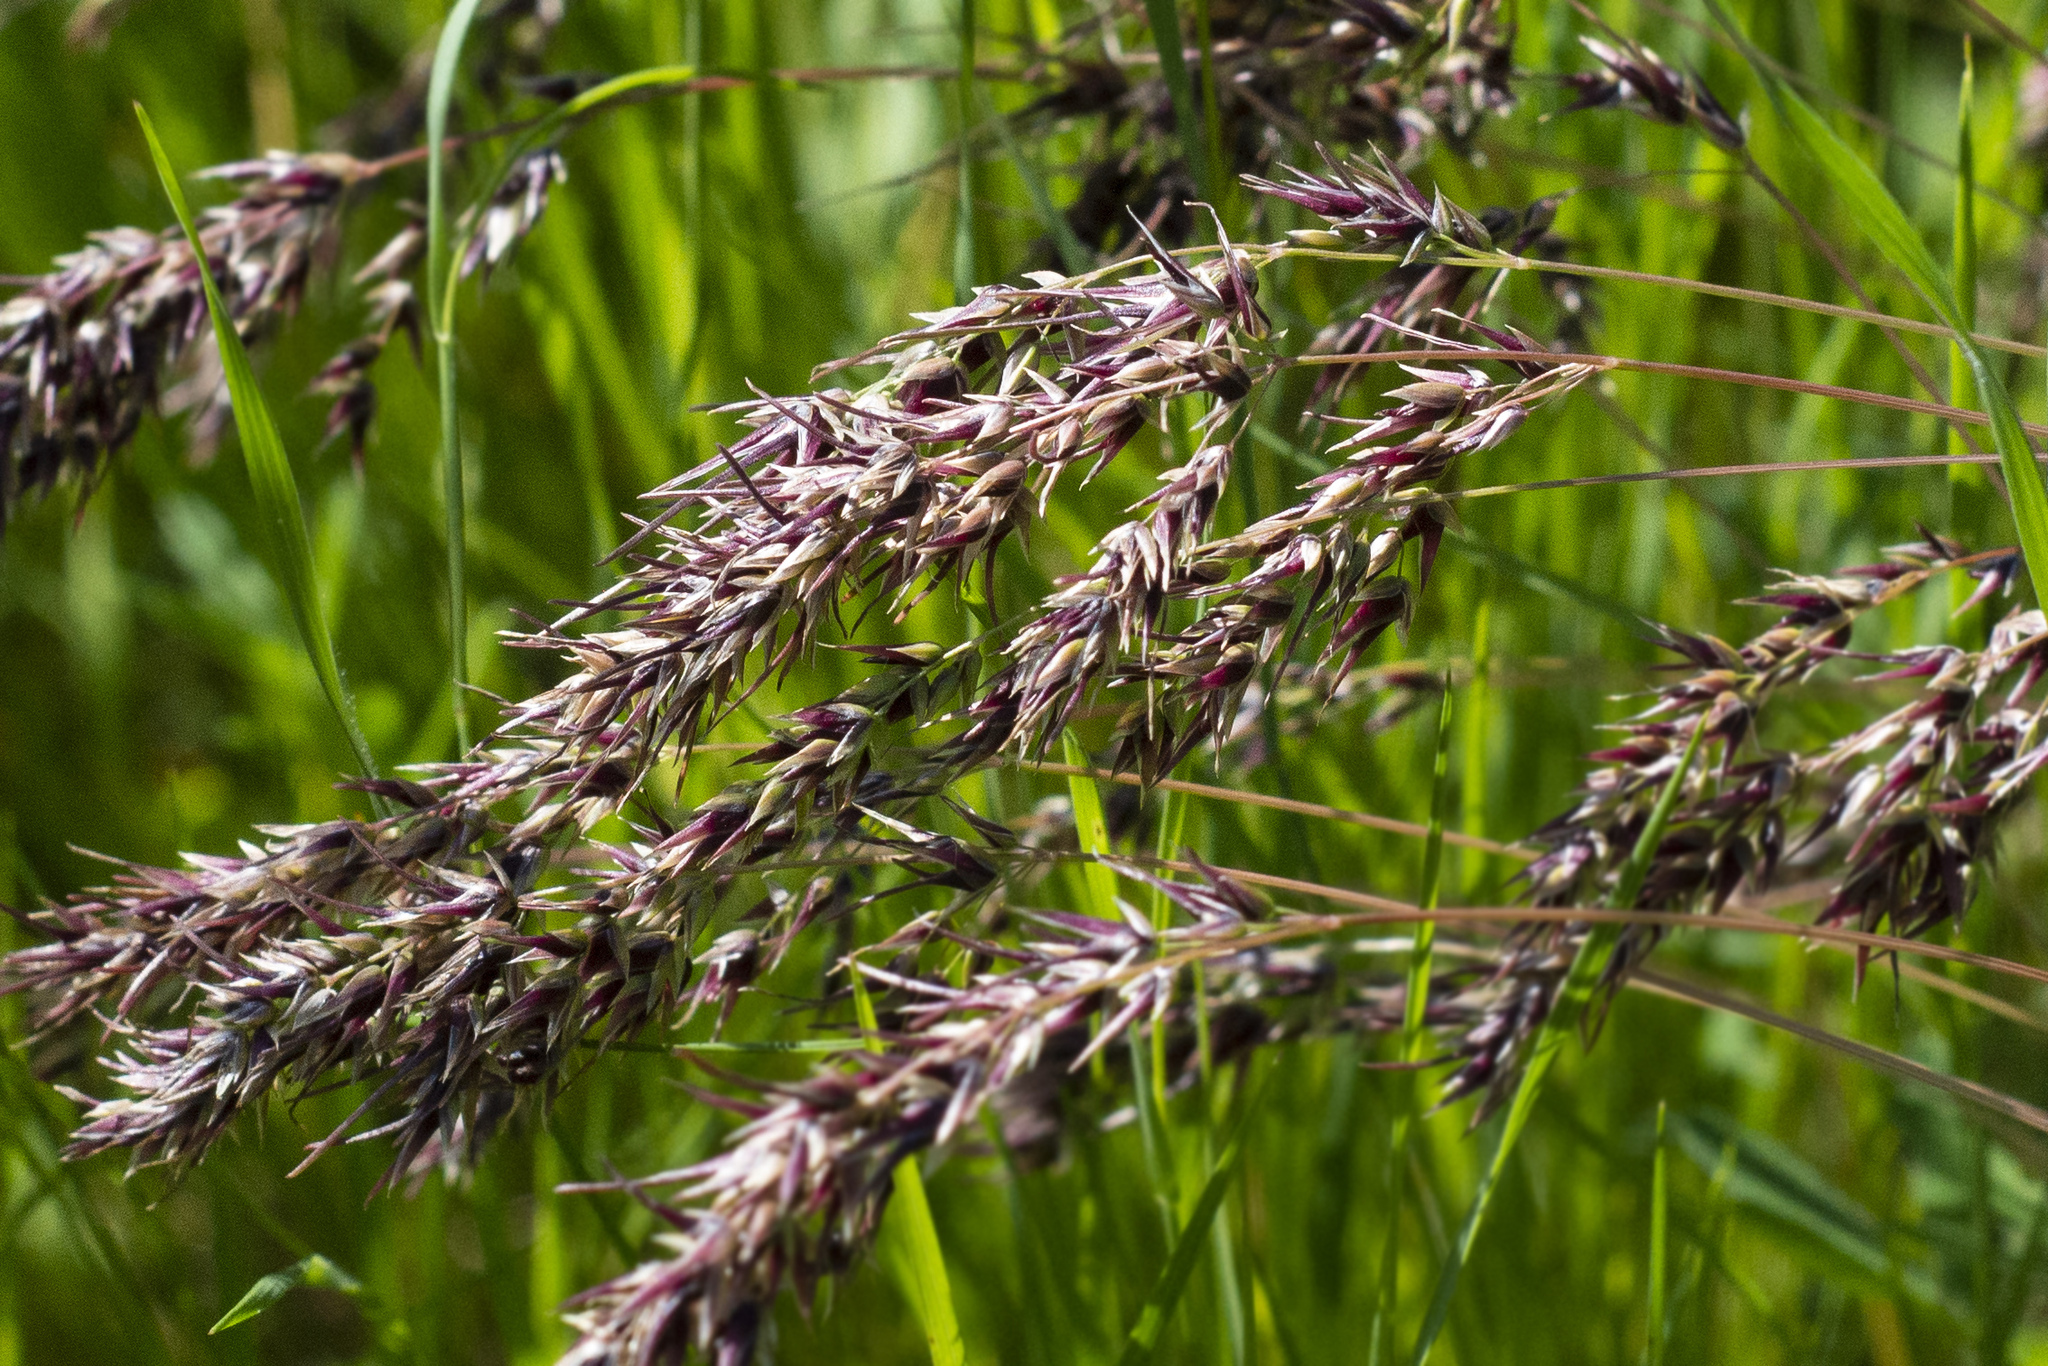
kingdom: Plantae
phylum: Tracheophyta
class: Liliopsida
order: Poales
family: Poaceae
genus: Poa
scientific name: Poa bulbosa
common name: Bulbous bluegrass
